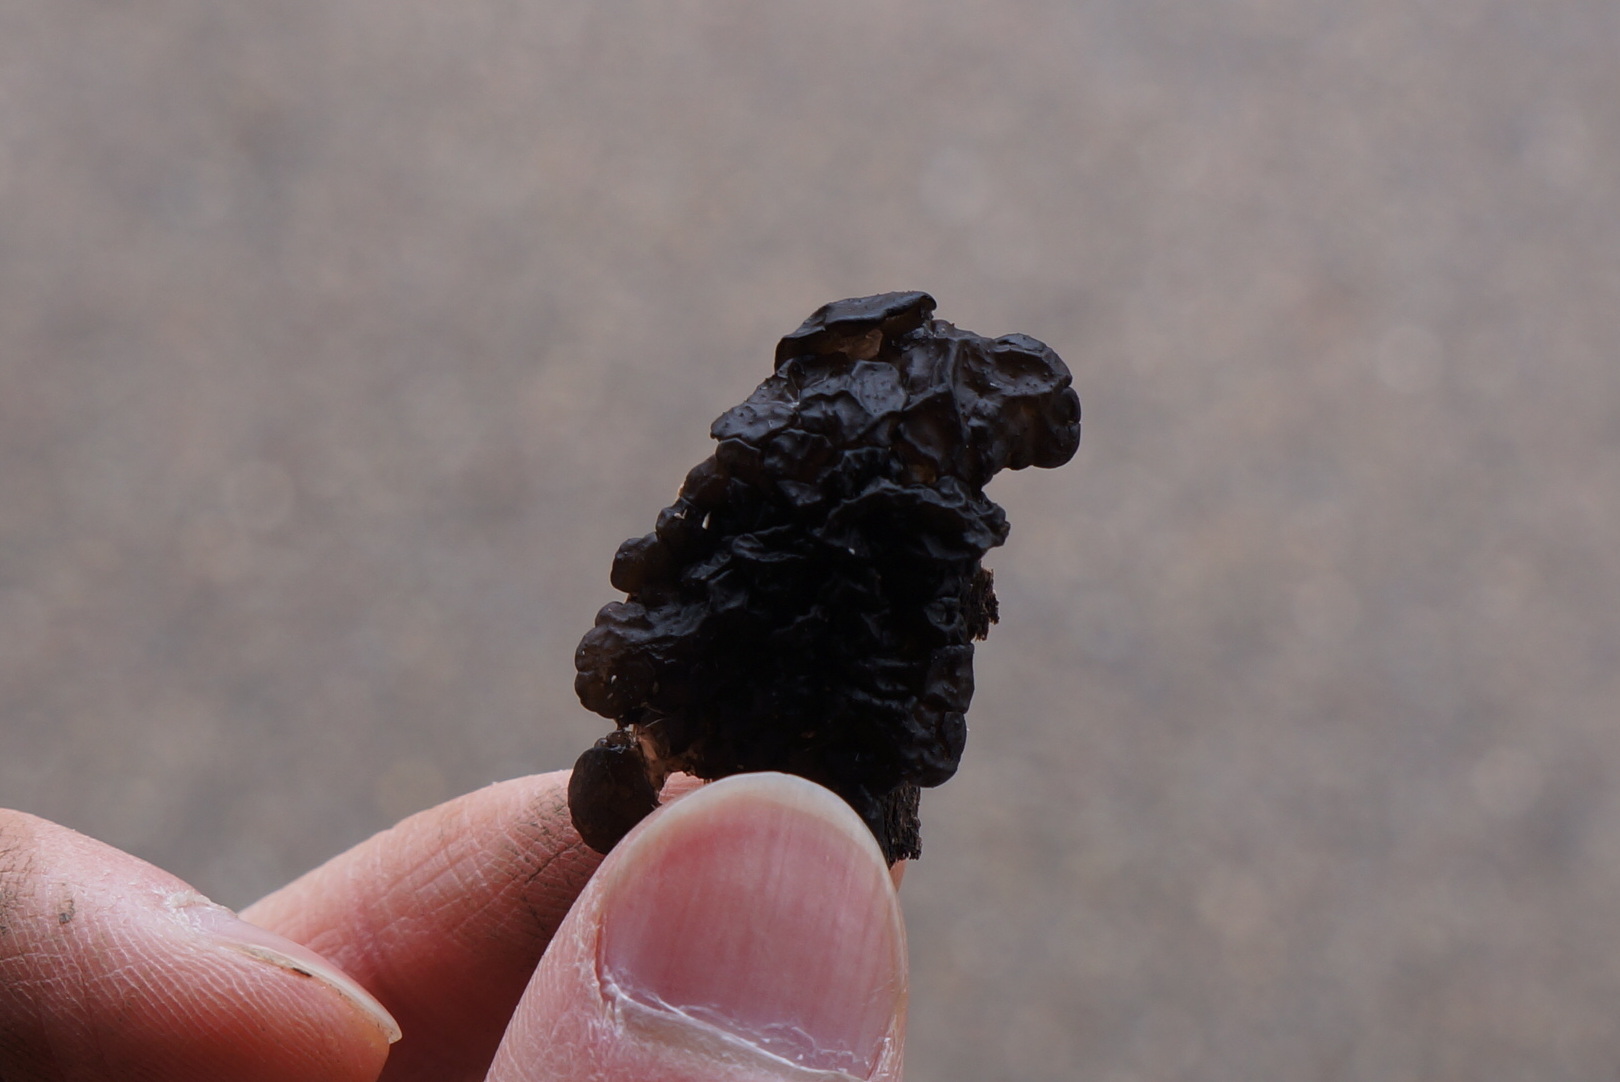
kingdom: Fungi
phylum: Basidiomycota
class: Agaricomycetes
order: Auriculariales
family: Auriculariaceae
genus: Exidia
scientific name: Exidia glandulosa
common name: Witches' butter
